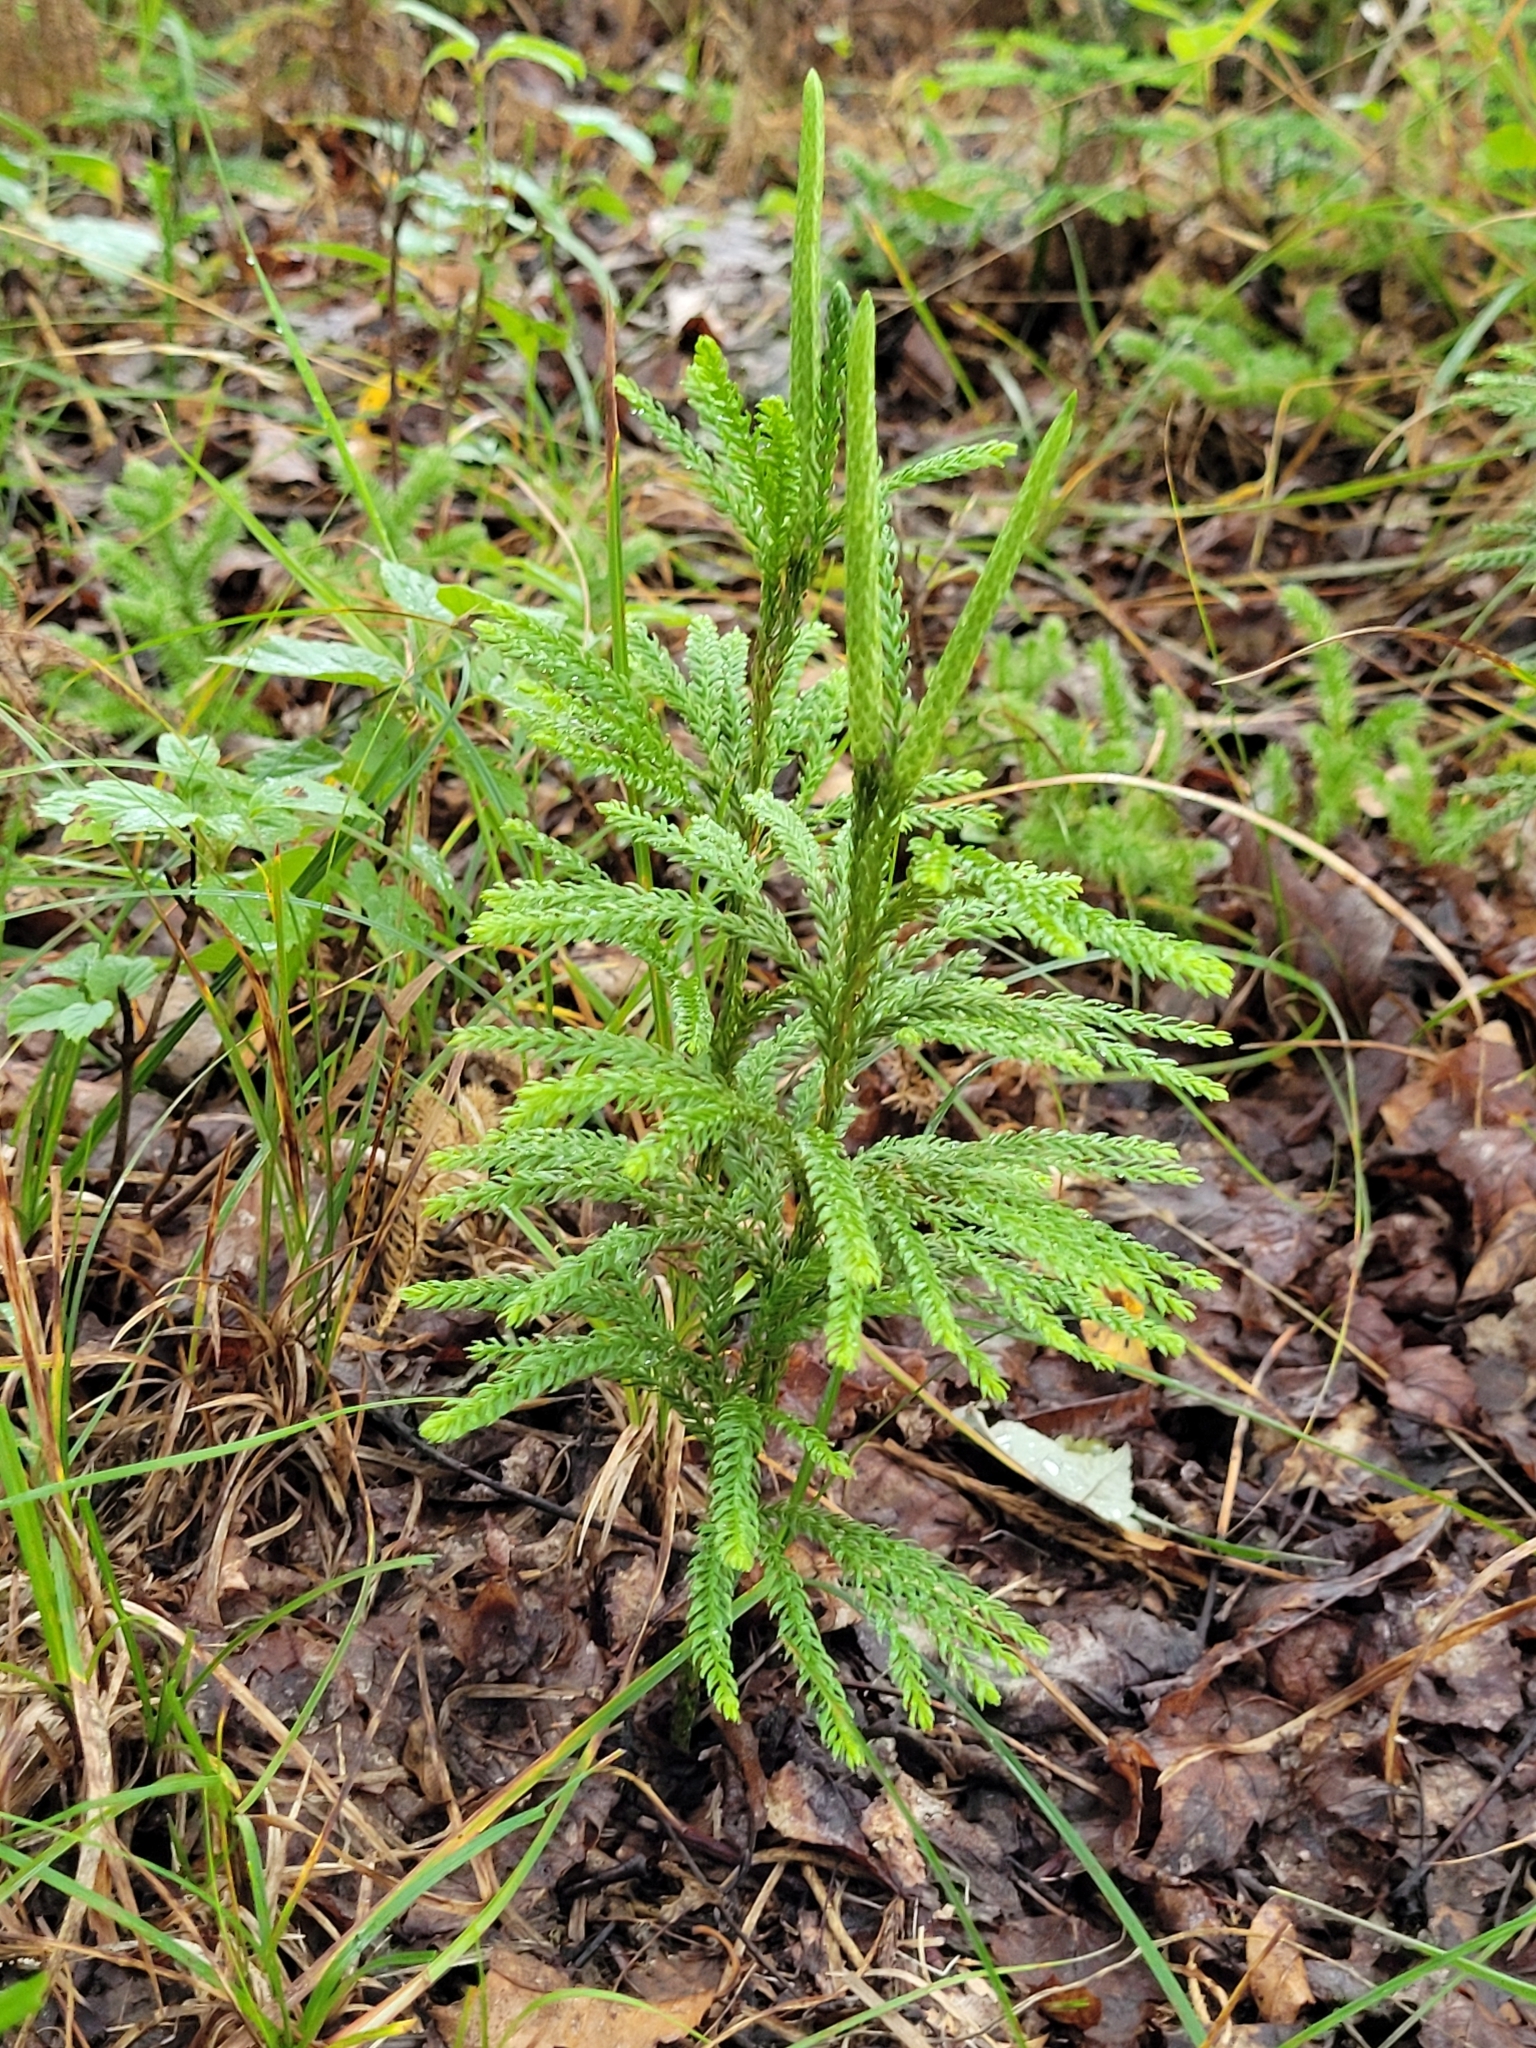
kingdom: Plantae
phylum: Tracheophyta
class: Lycopodiopsida
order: Lycopodiales
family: Lycopodiaceae
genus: Dendrolycopodium
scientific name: Dendrolycopodium obscurum
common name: Common ground-pine
